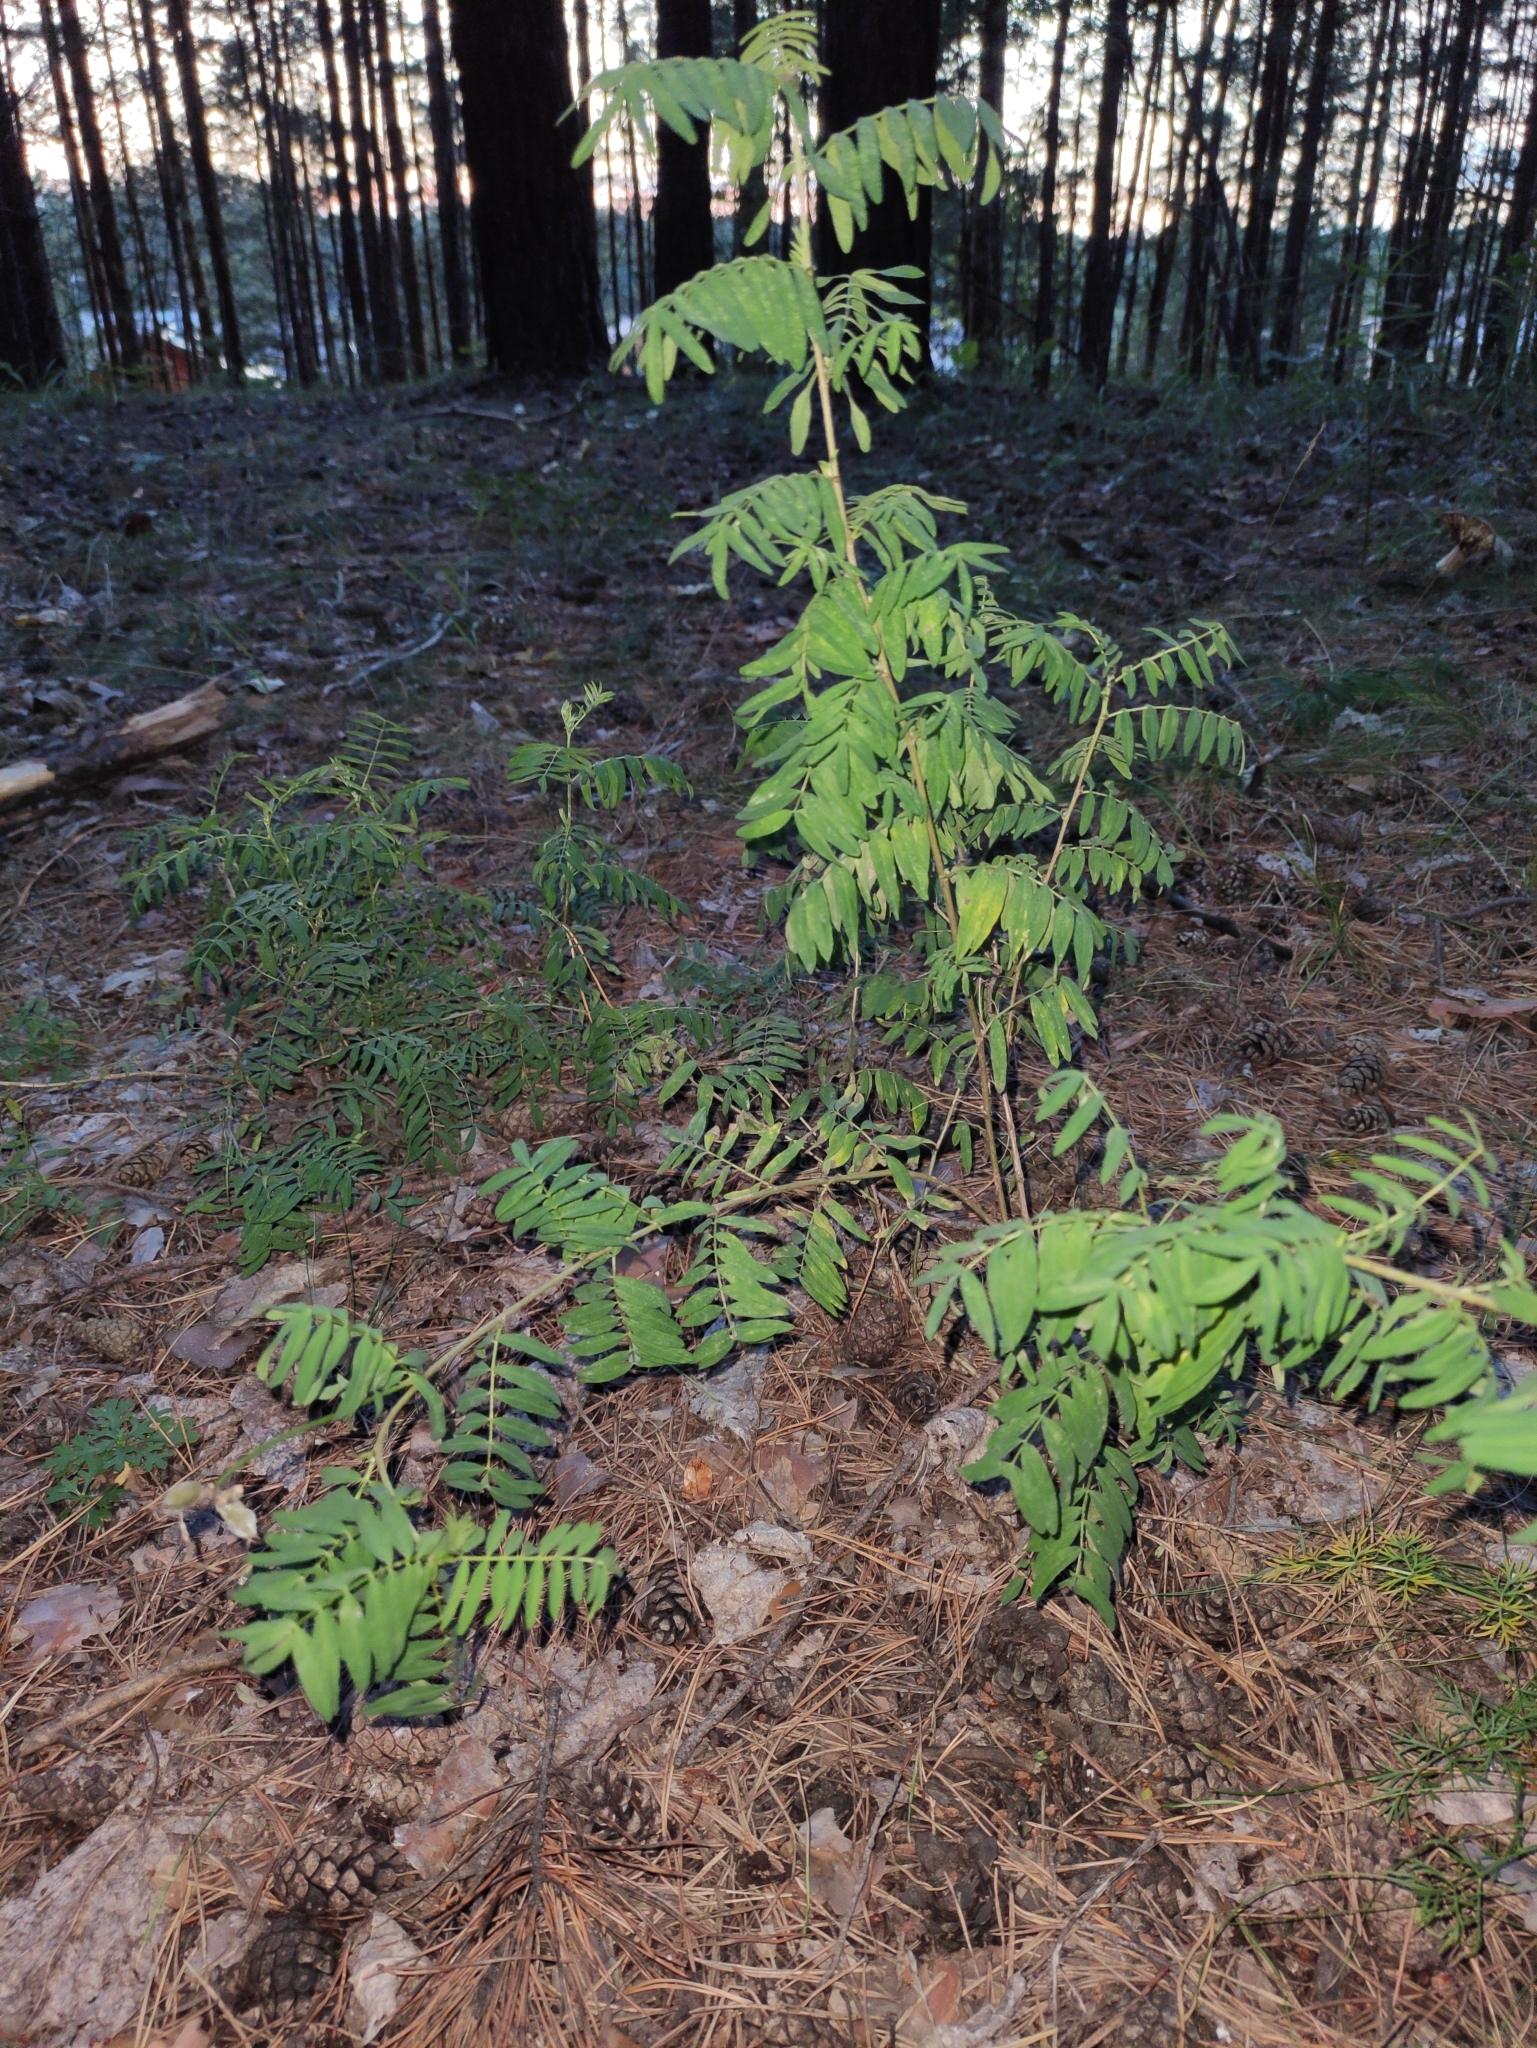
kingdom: Plantae
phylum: Tracheophyta
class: Magnoliopsida
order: Fabales
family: Fabaceae
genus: Astragalus
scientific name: Astragalus syriacus
